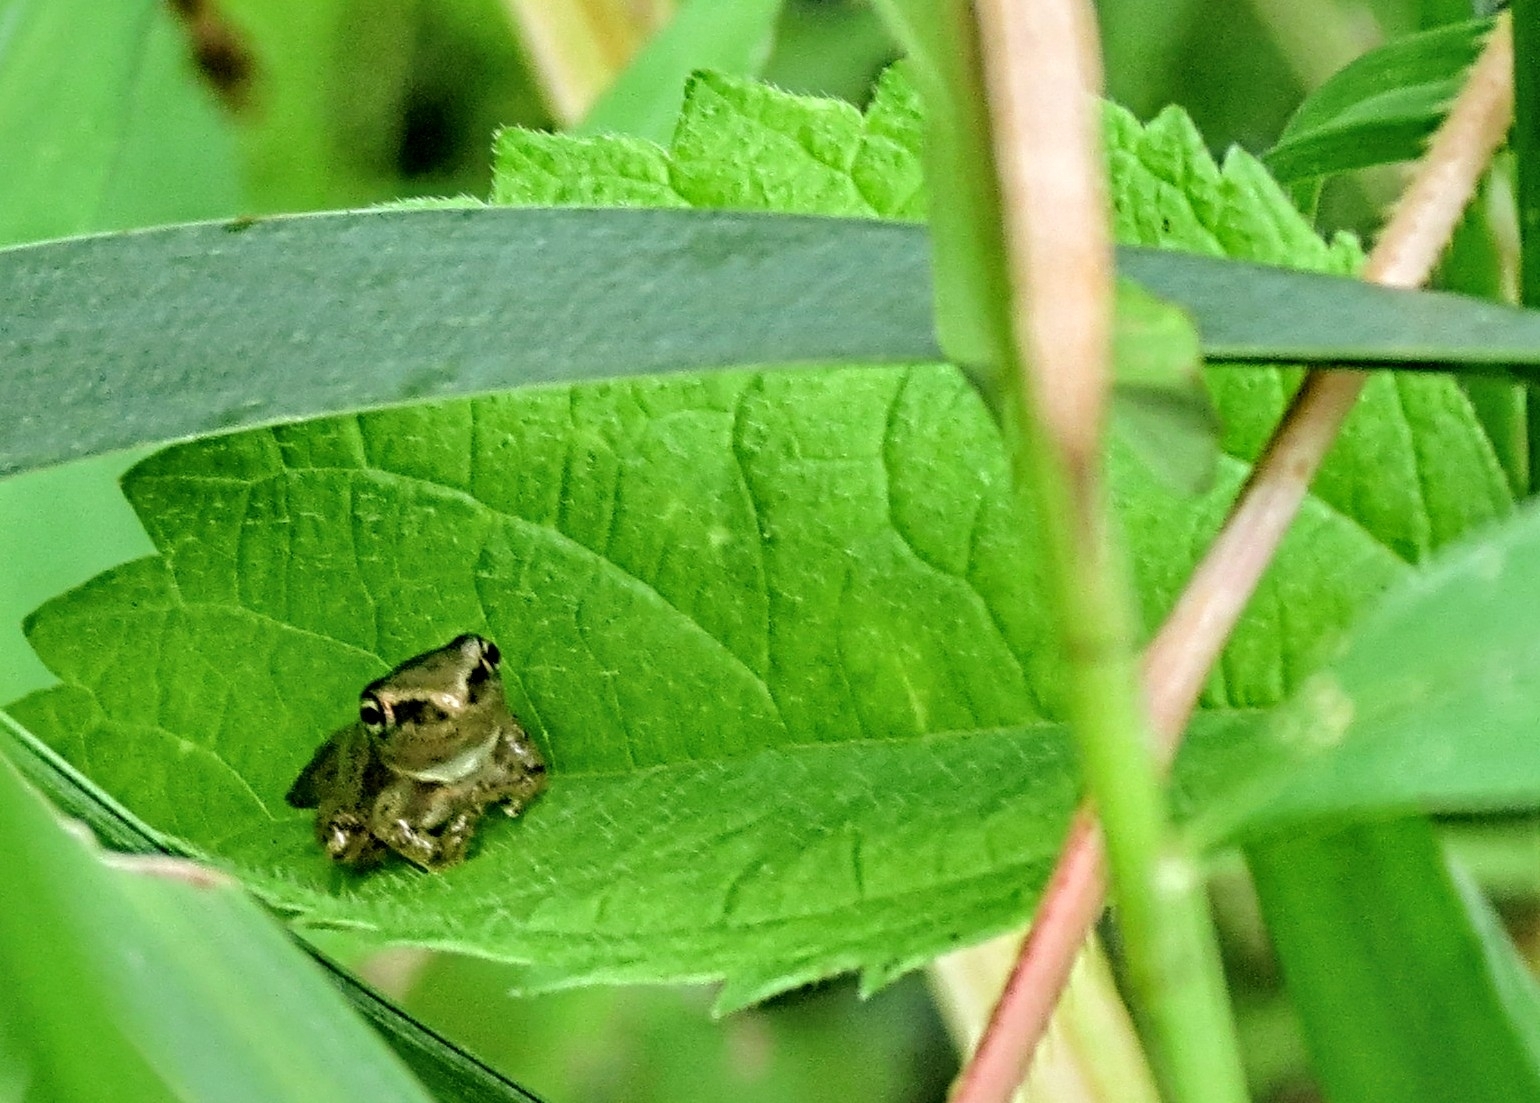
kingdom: Animalia
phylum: Chordata
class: Amphibia
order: Anura
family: Hylidae
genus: Pseudacris
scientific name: Pseudacris crucifer
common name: Spring peeper
